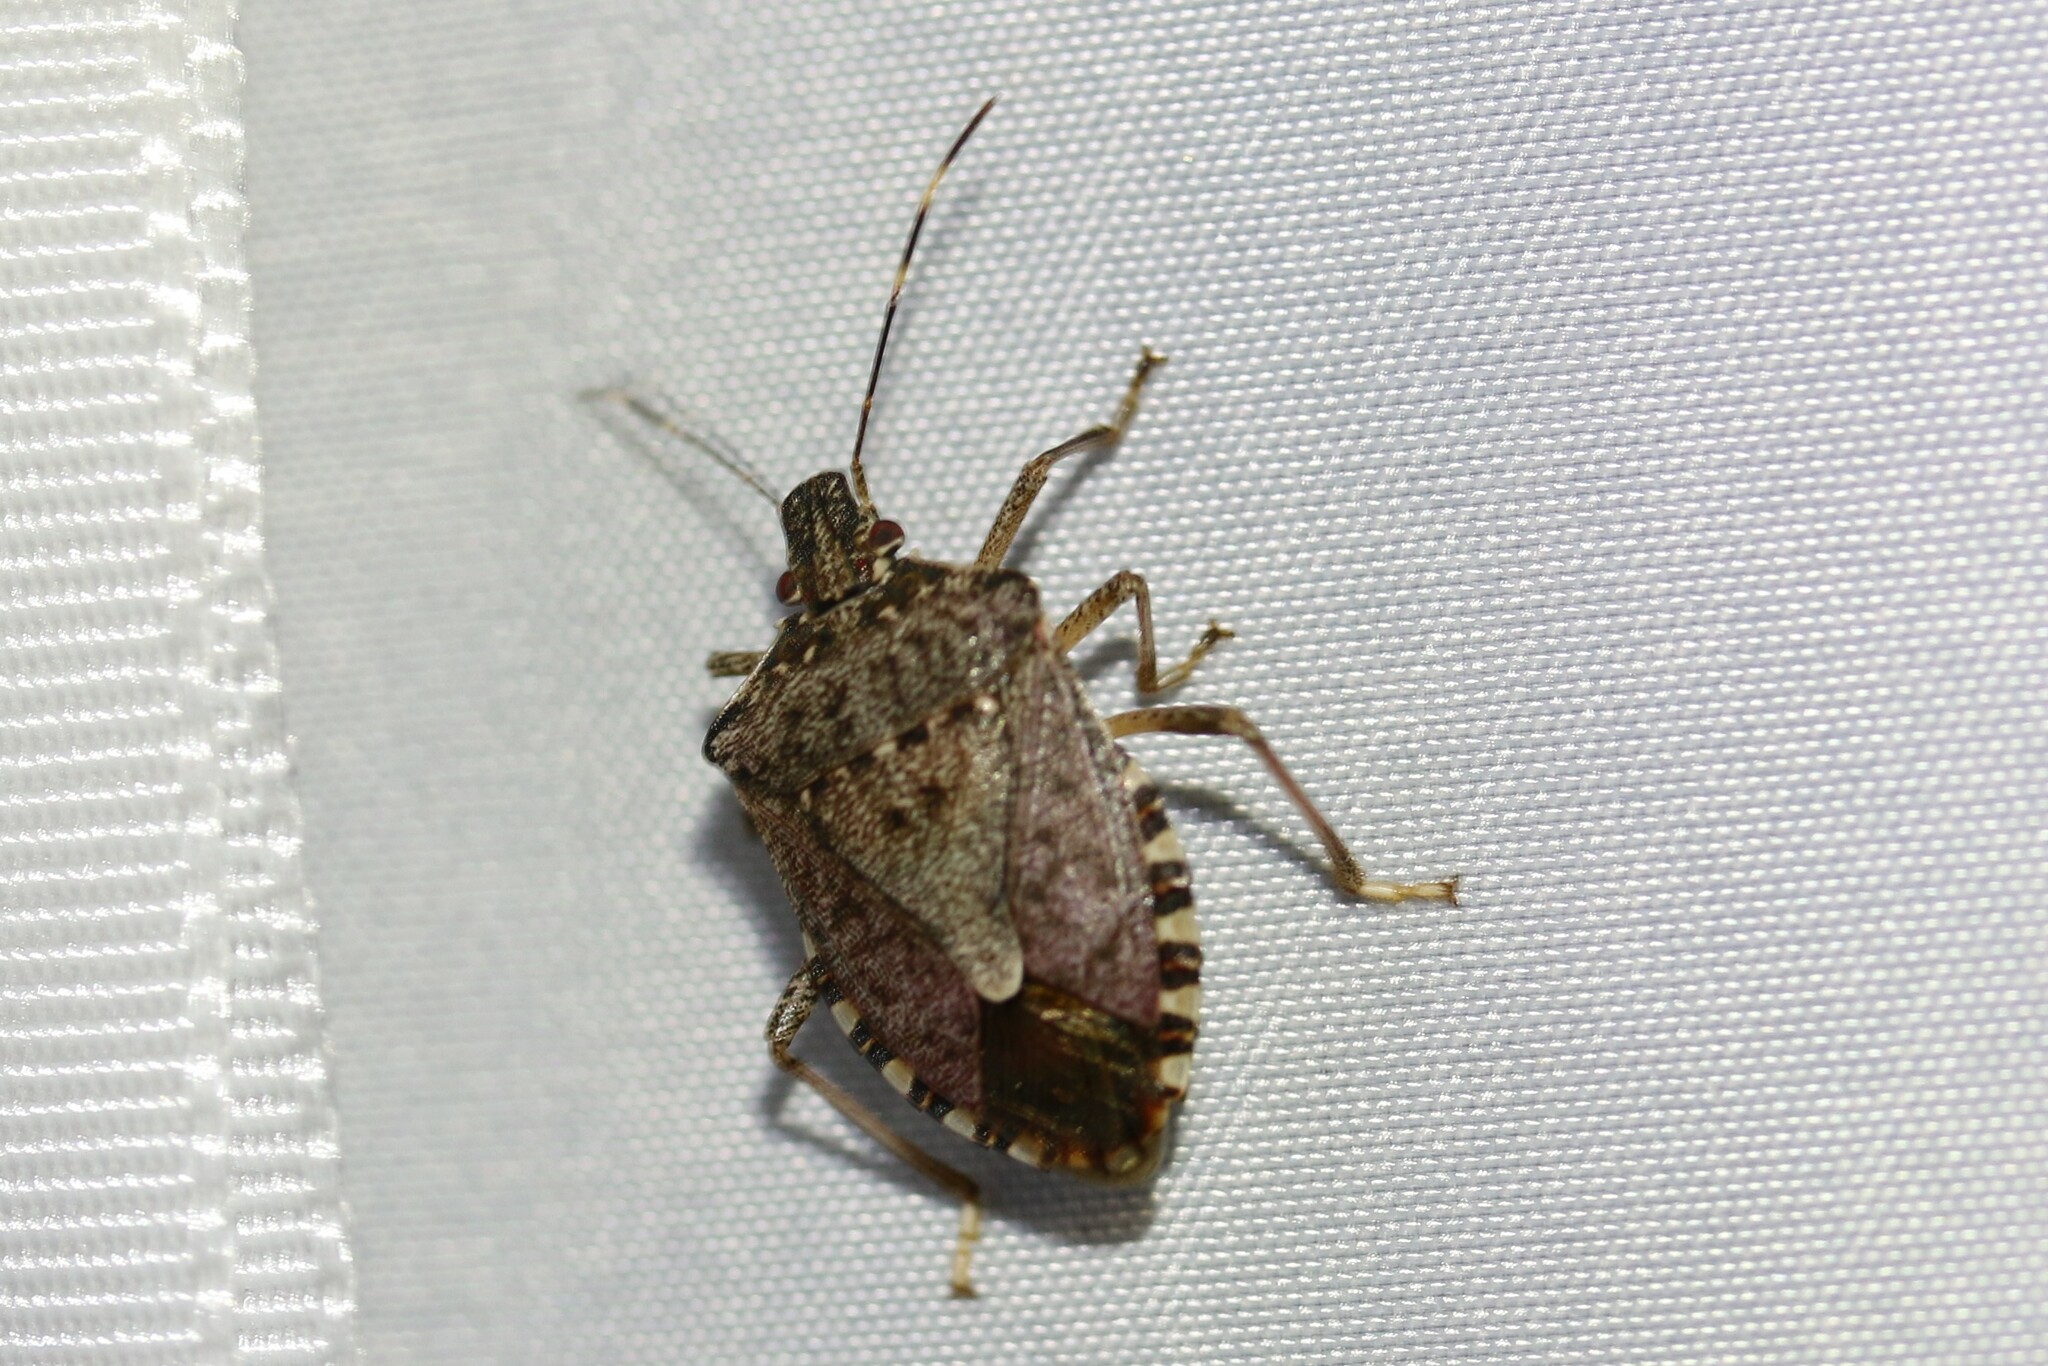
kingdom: Animalia
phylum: Arthropoda
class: Insecta
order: Hemiptera
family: Pentatomidae
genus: Halyomorpha
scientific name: Halyomorpha halys
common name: Brown marmorated stink bug
